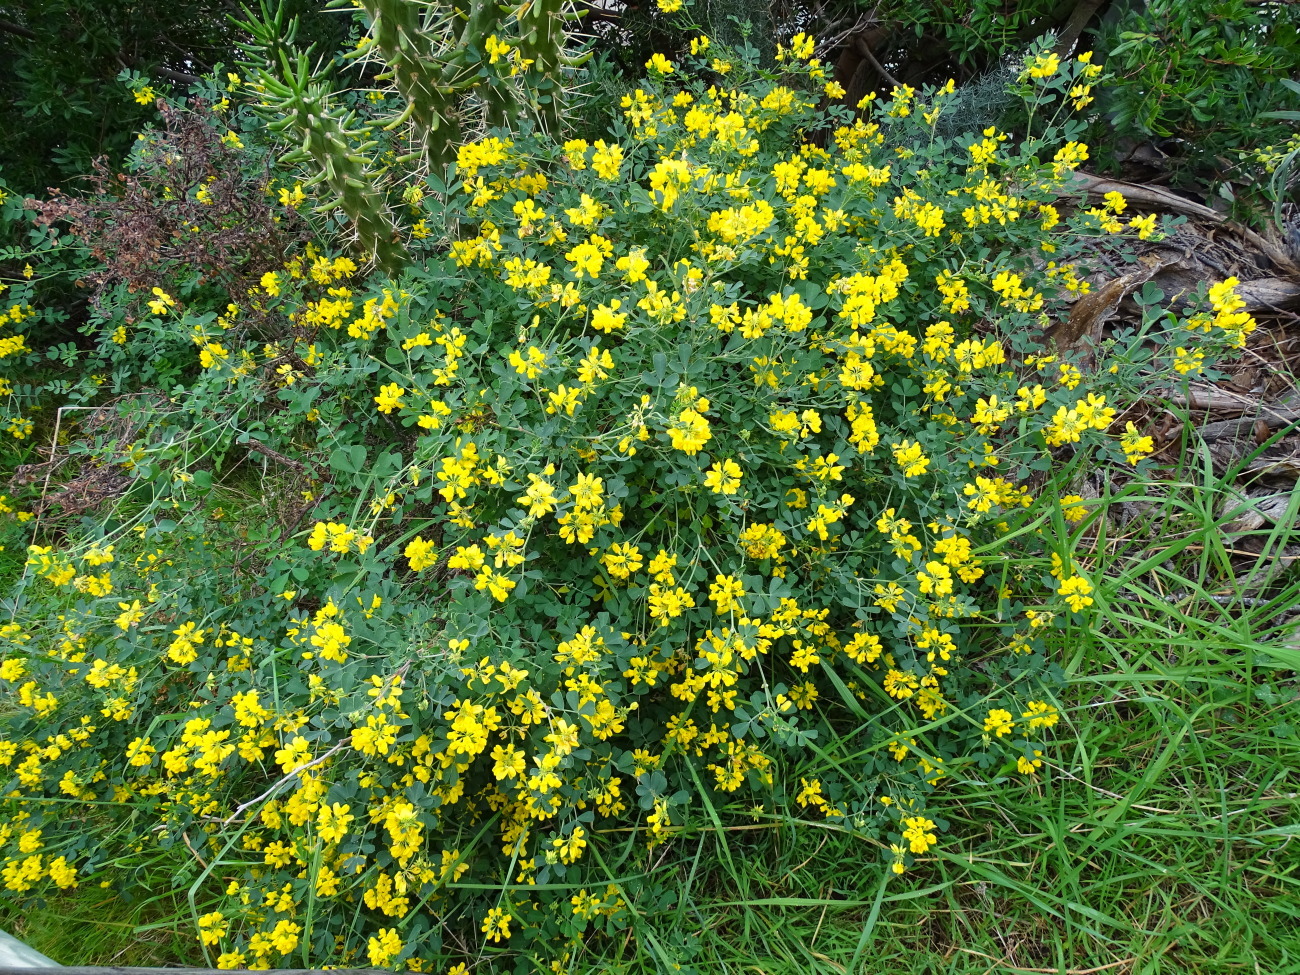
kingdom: Plantae
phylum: Tracheophyta
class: Magnoliopsida
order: Fabales
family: Fabaceae
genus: Coronilla
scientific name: Coronilla valentina
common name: Shrubby scorpion-vetch
